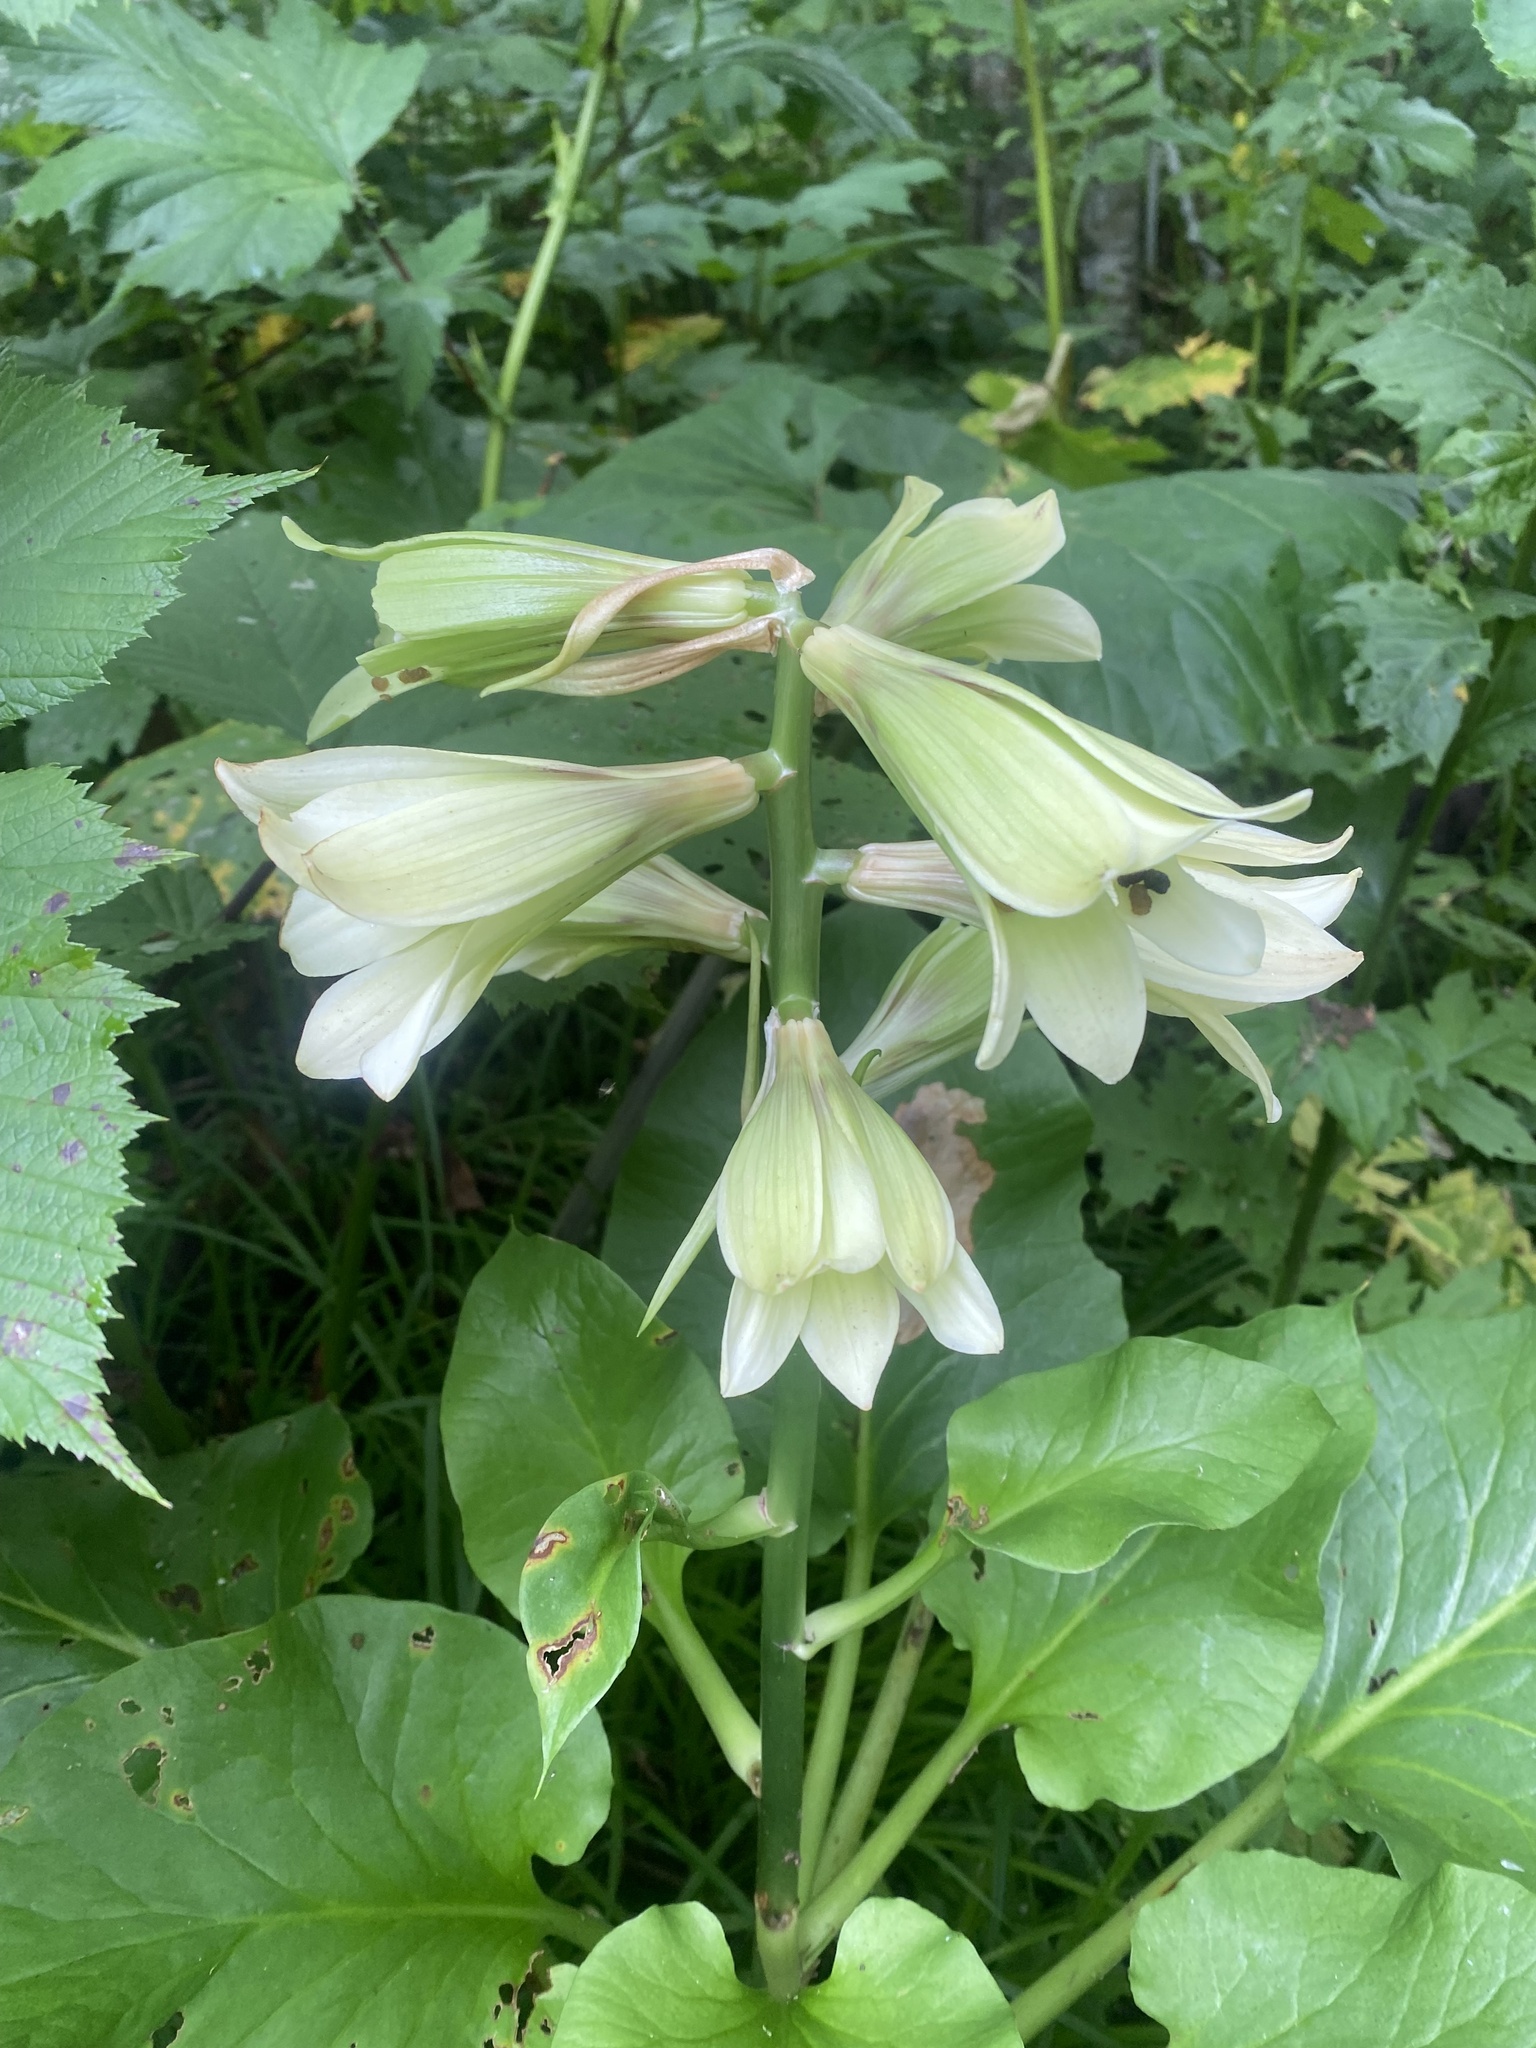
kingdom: Plantae
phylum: Tracheophyta
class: Liliopsida
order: Liliales
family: Liliaceae
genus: Cardiocrinum
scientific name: Cardiocrinum cordatum
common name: Lily
